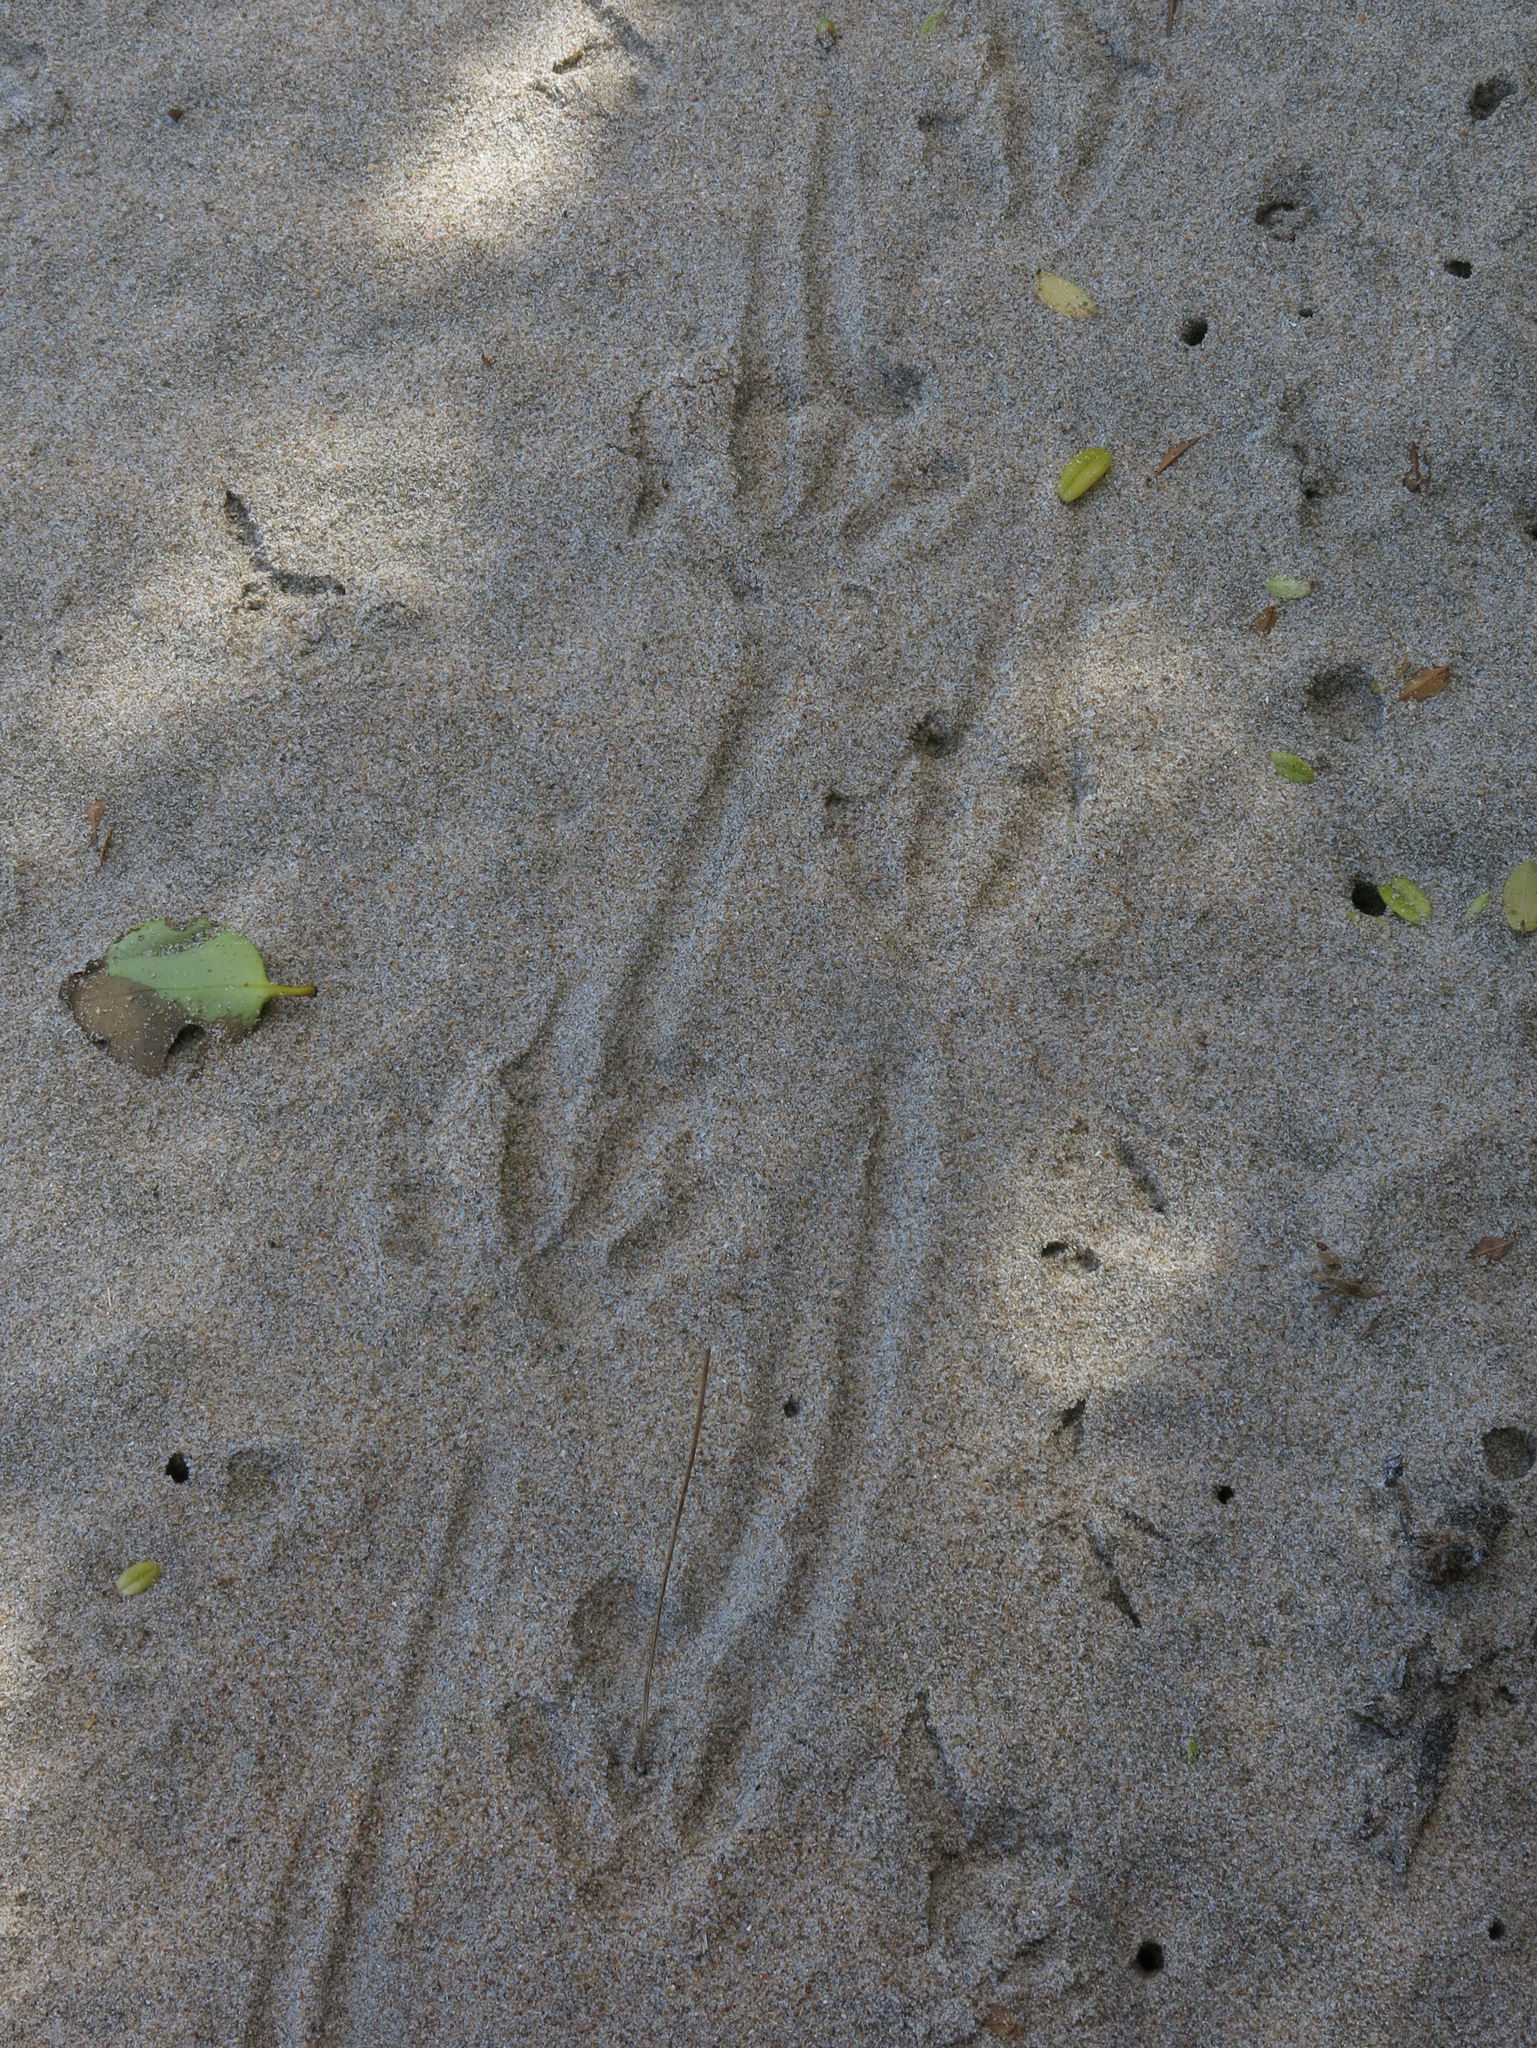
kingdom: Animalia
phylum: Chordata
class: Aves
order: Sphenisciformes
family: Spheniscidae
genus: Eudyptula
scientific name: Eudyptula minor
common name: Little penguin
